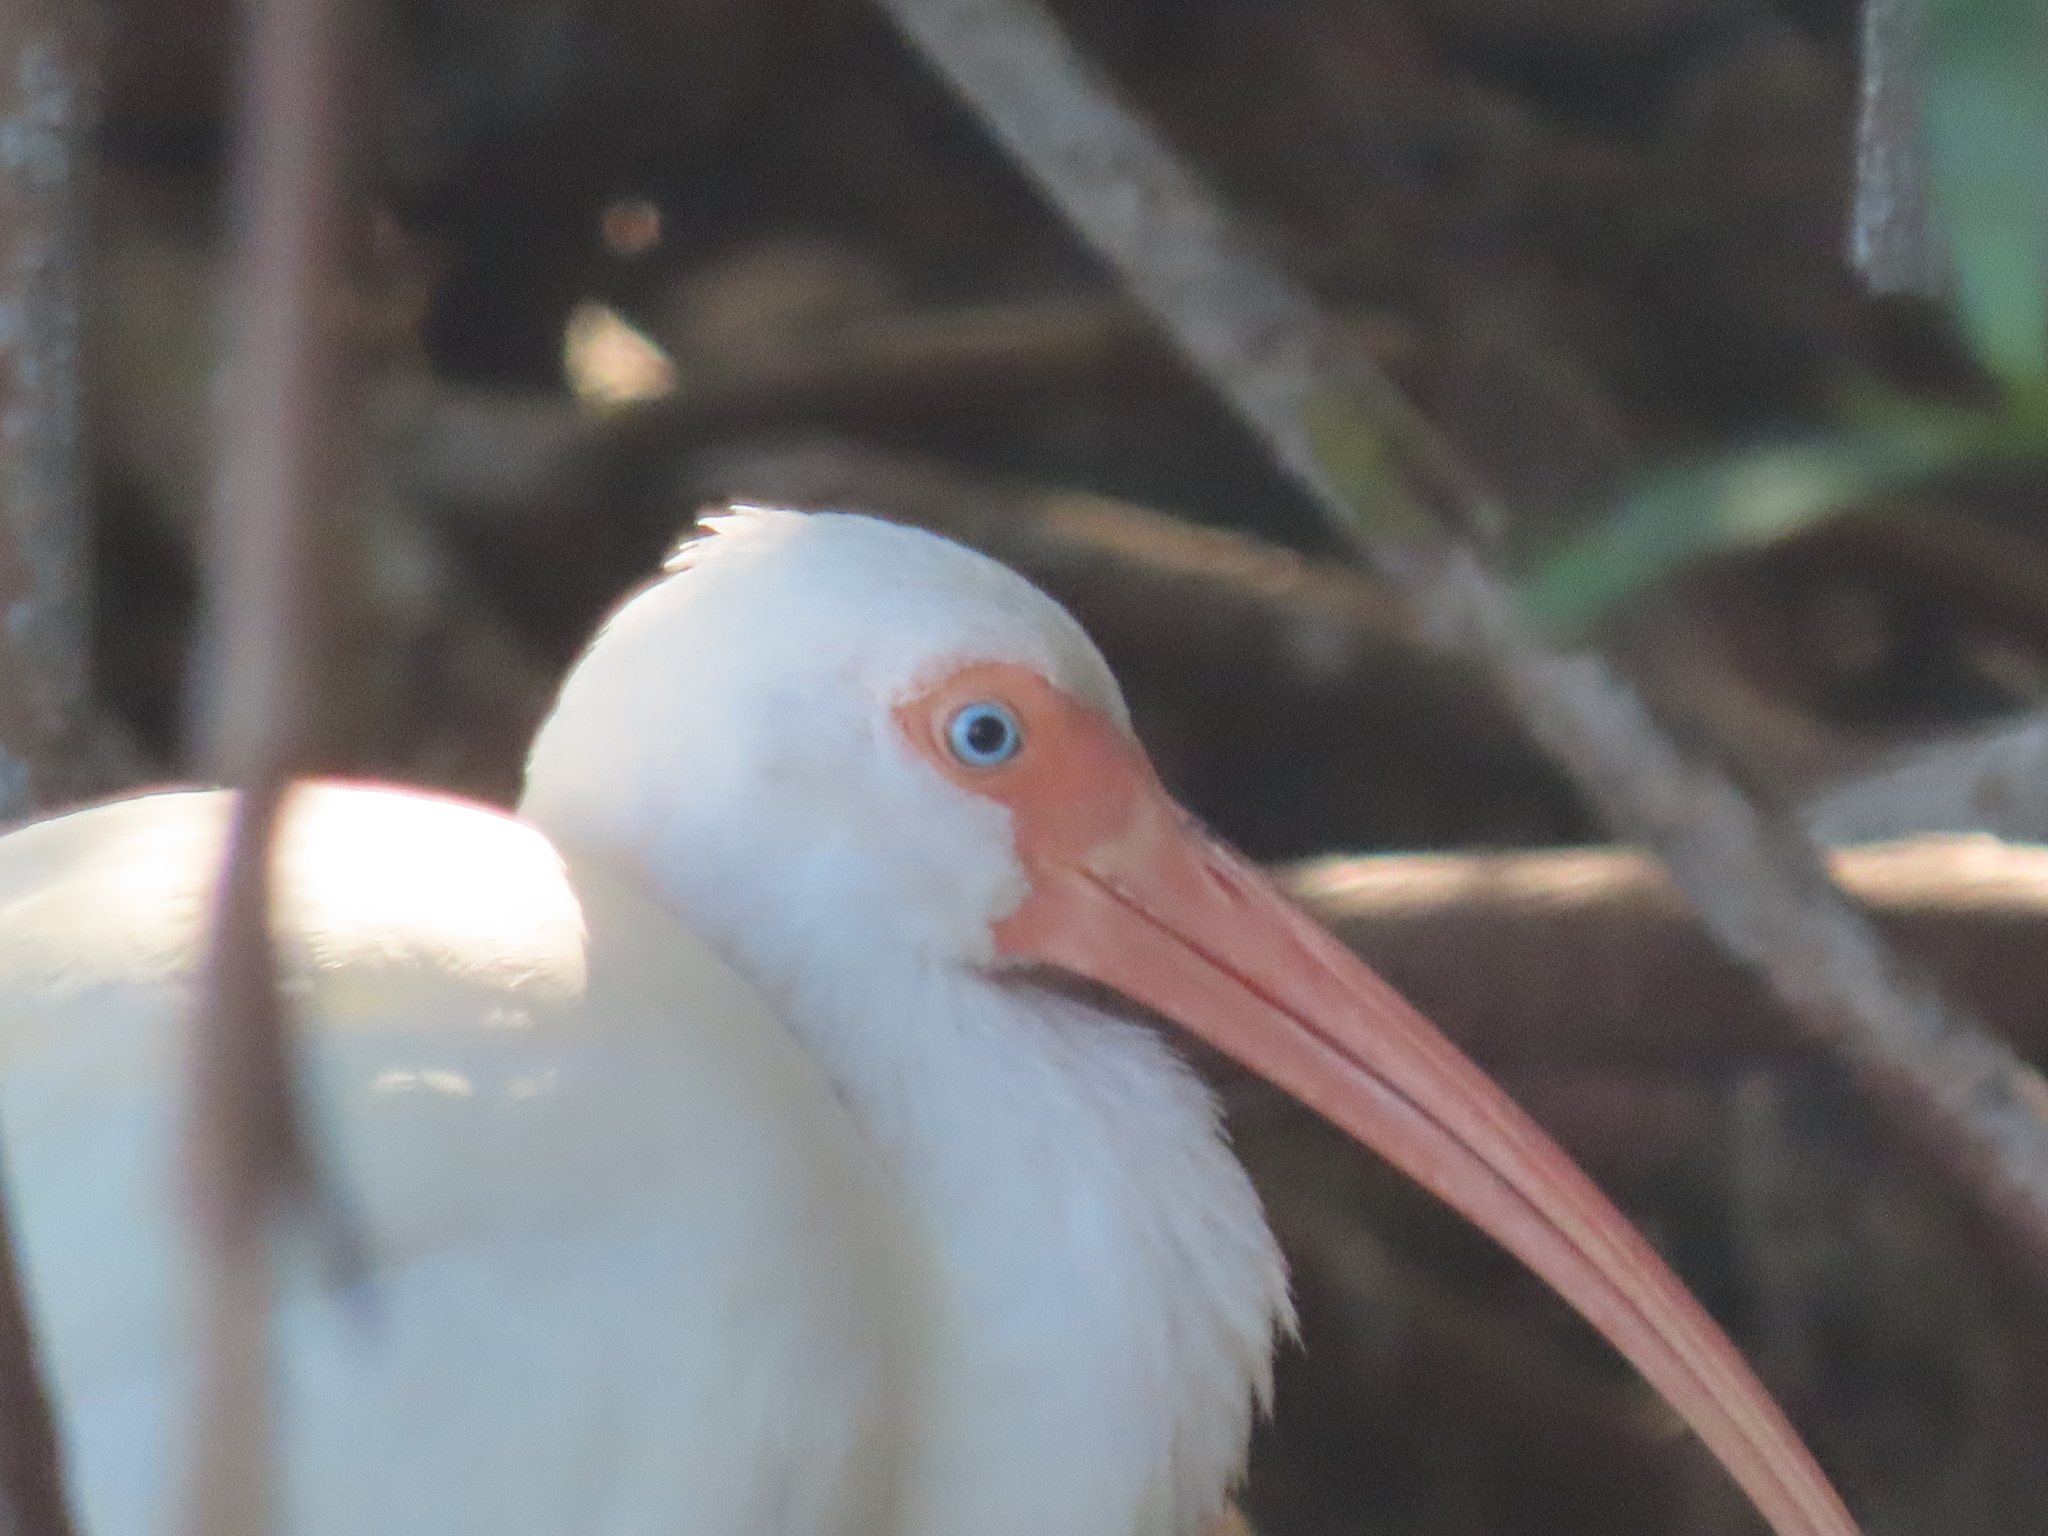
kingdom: Animalia
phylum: Chordata
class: Aves
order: Pelecaniformes
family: Threskiornithidae
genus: Eudocimus
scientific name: Eudocimus albus
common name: White ibis
